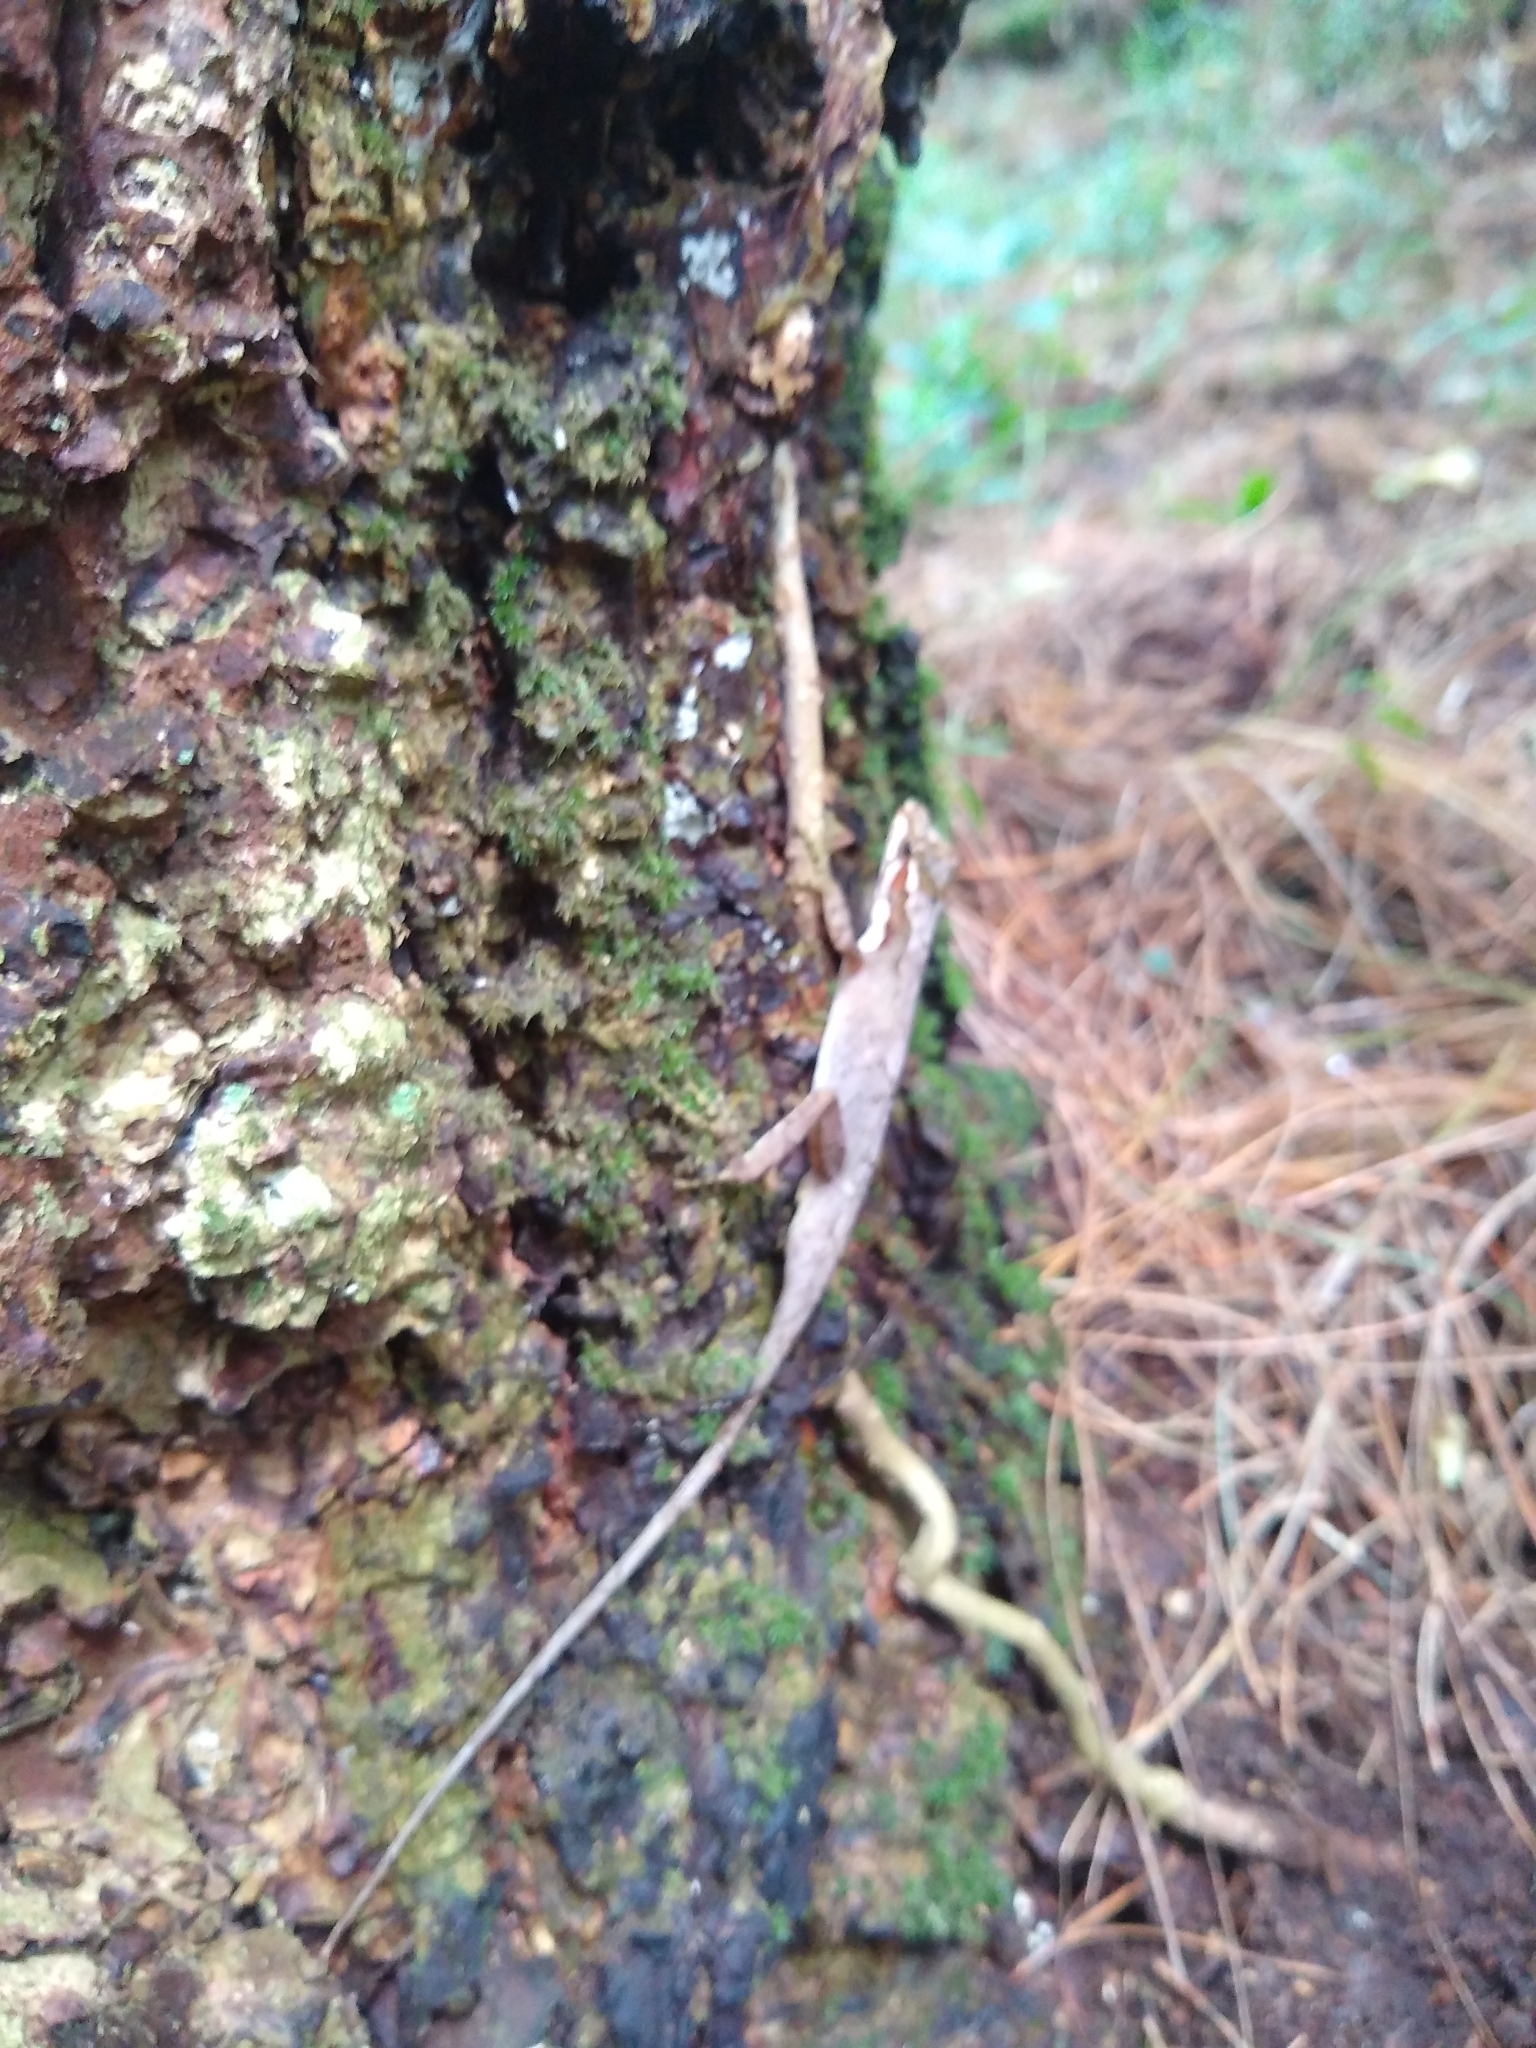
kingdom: Animalia
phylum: Chordata
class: Squamata
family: Dactyloidae
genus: Anolis
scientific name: Anolis tropidolepis
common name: Swift anole
